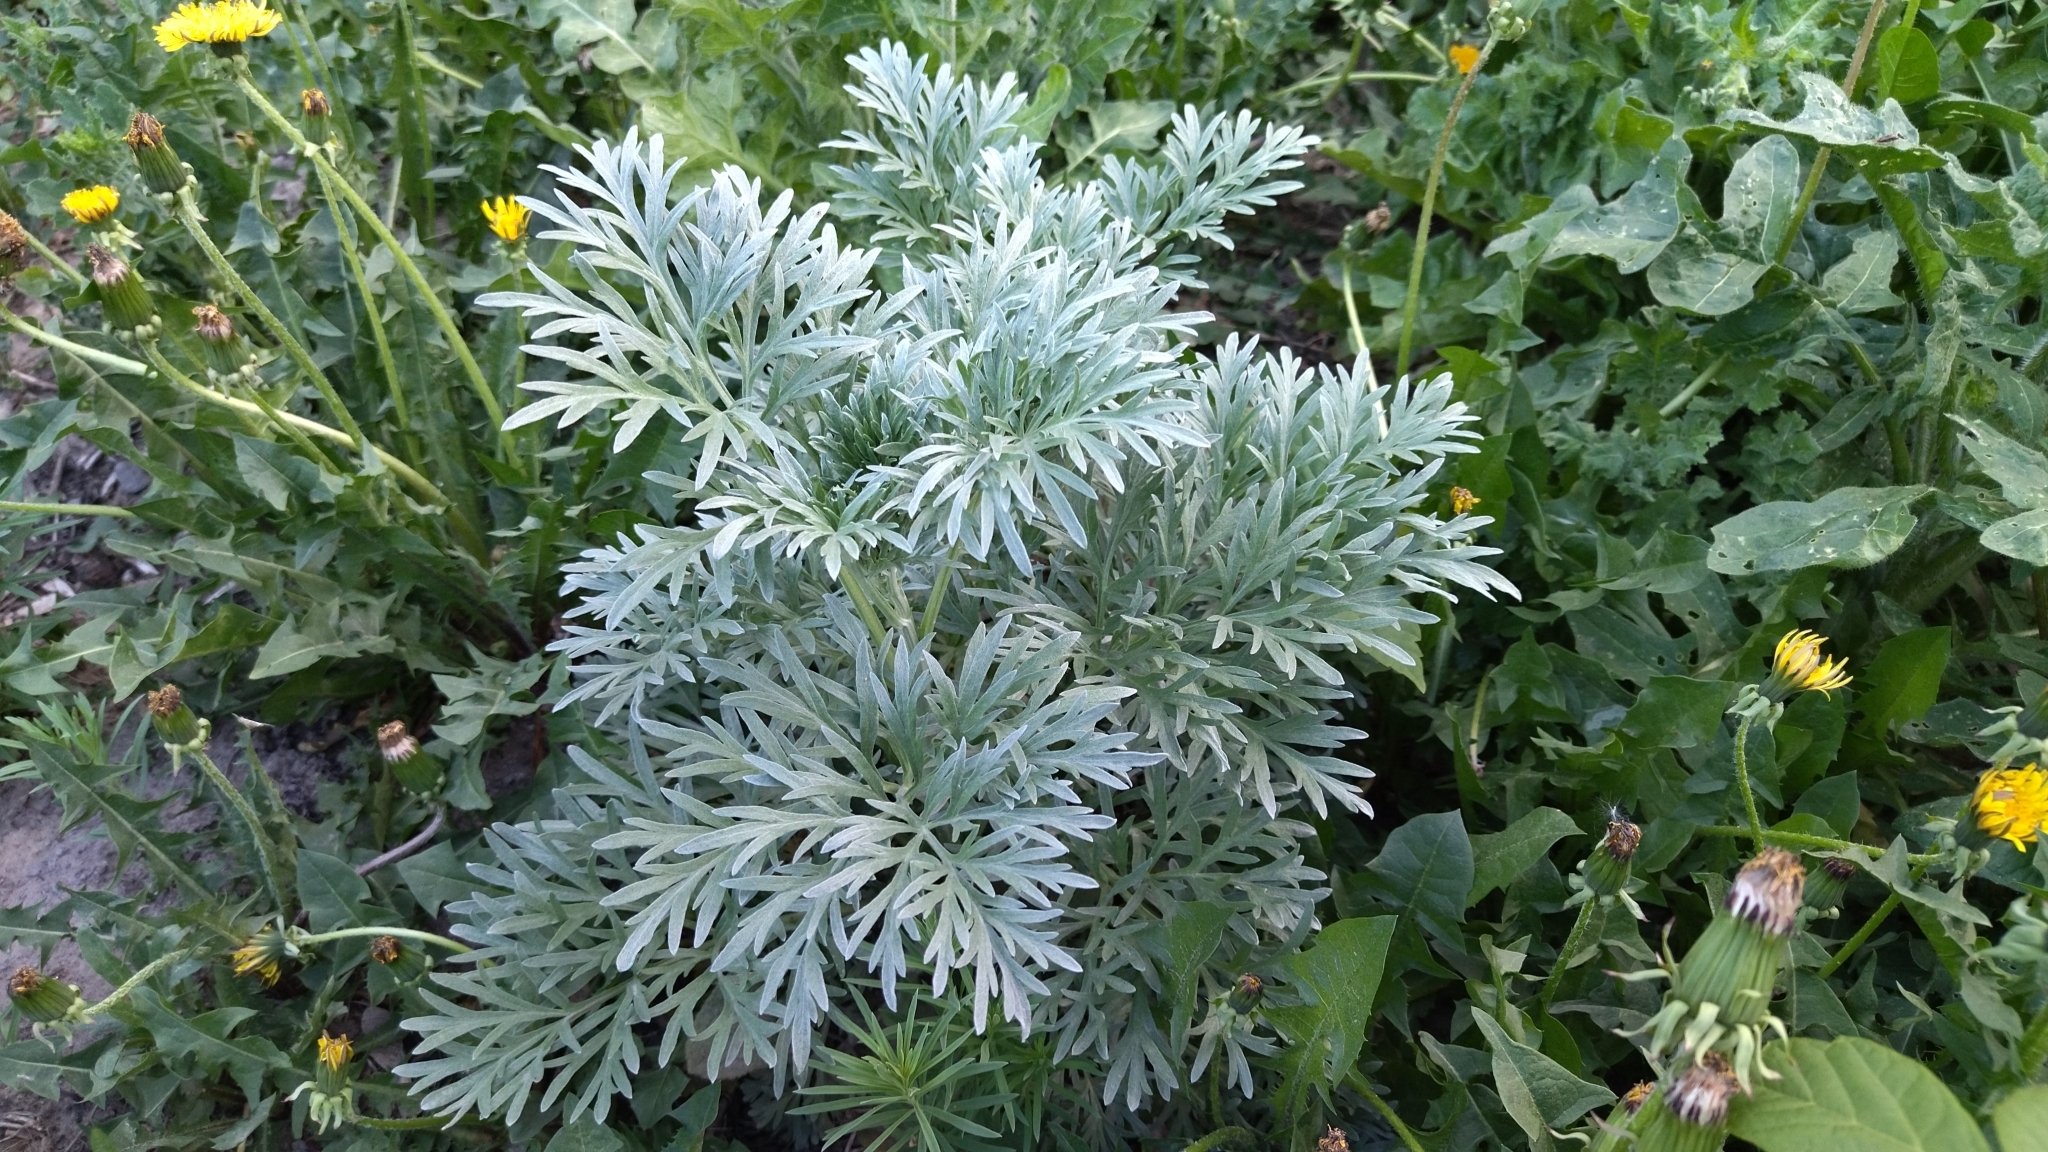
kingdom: Plantae
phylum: Tracheophyta
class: Magnoliopsida
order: Asterales
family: Asteraceae
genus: Artemisia
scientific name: Artemisia absinthium
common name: Wormwood
